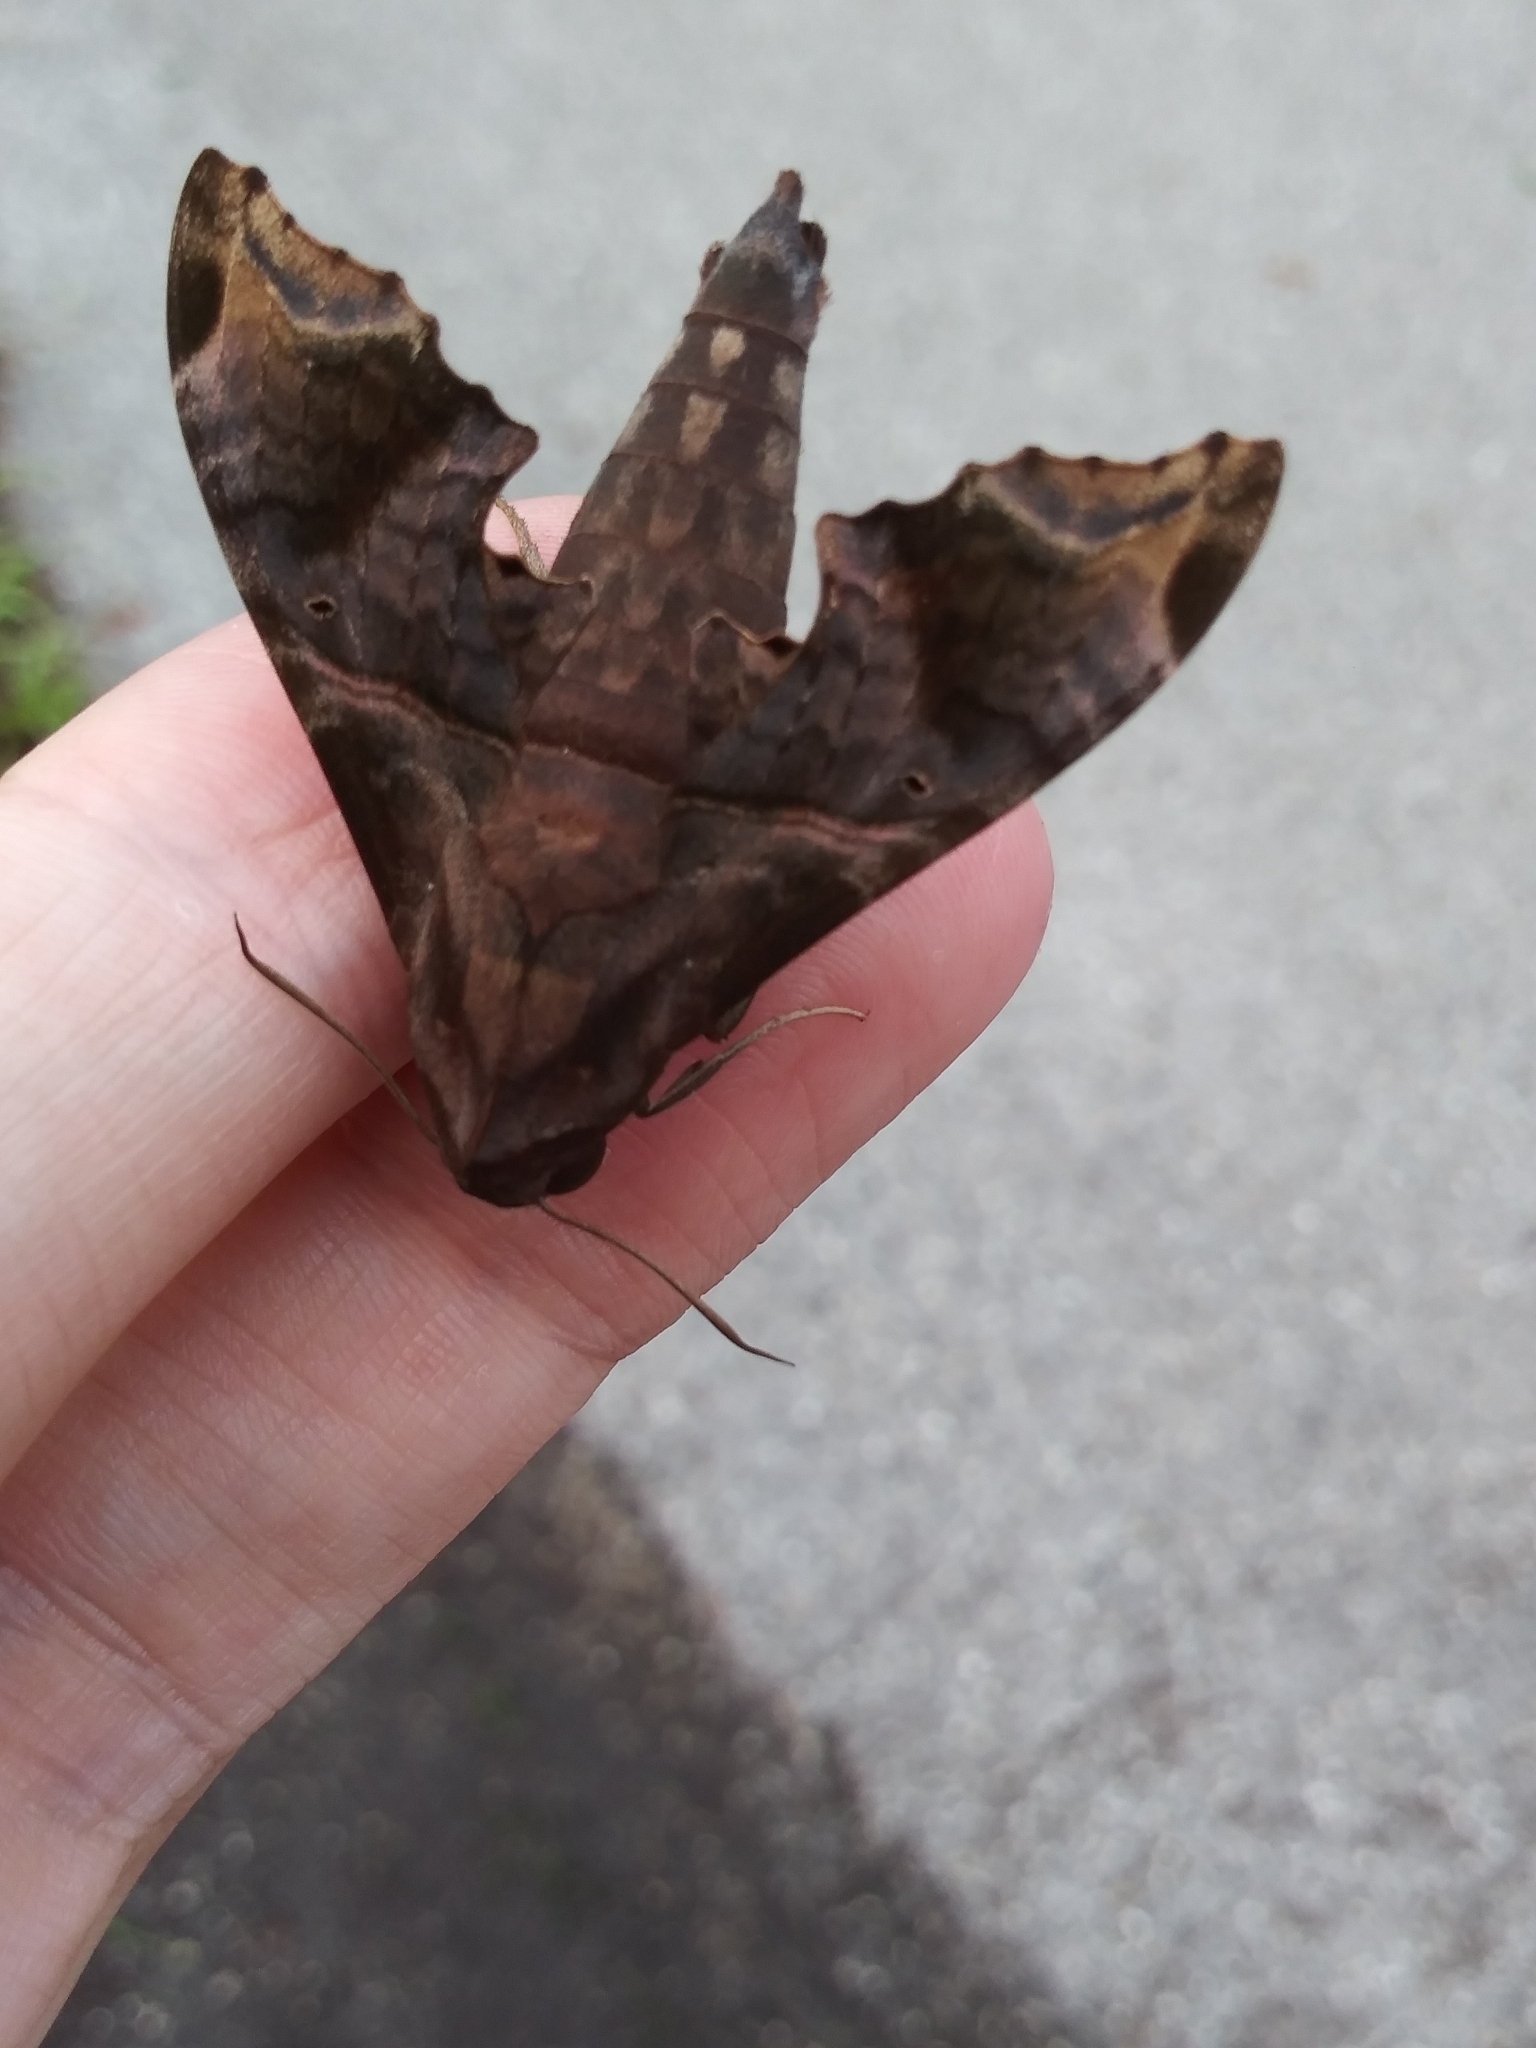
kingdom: Animalia
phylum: Arthropoda
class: Insecta
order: Lepidoptera
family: Sphingidae
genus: Enyo
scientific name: Enyo lugubris
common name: Mournful sphinx
